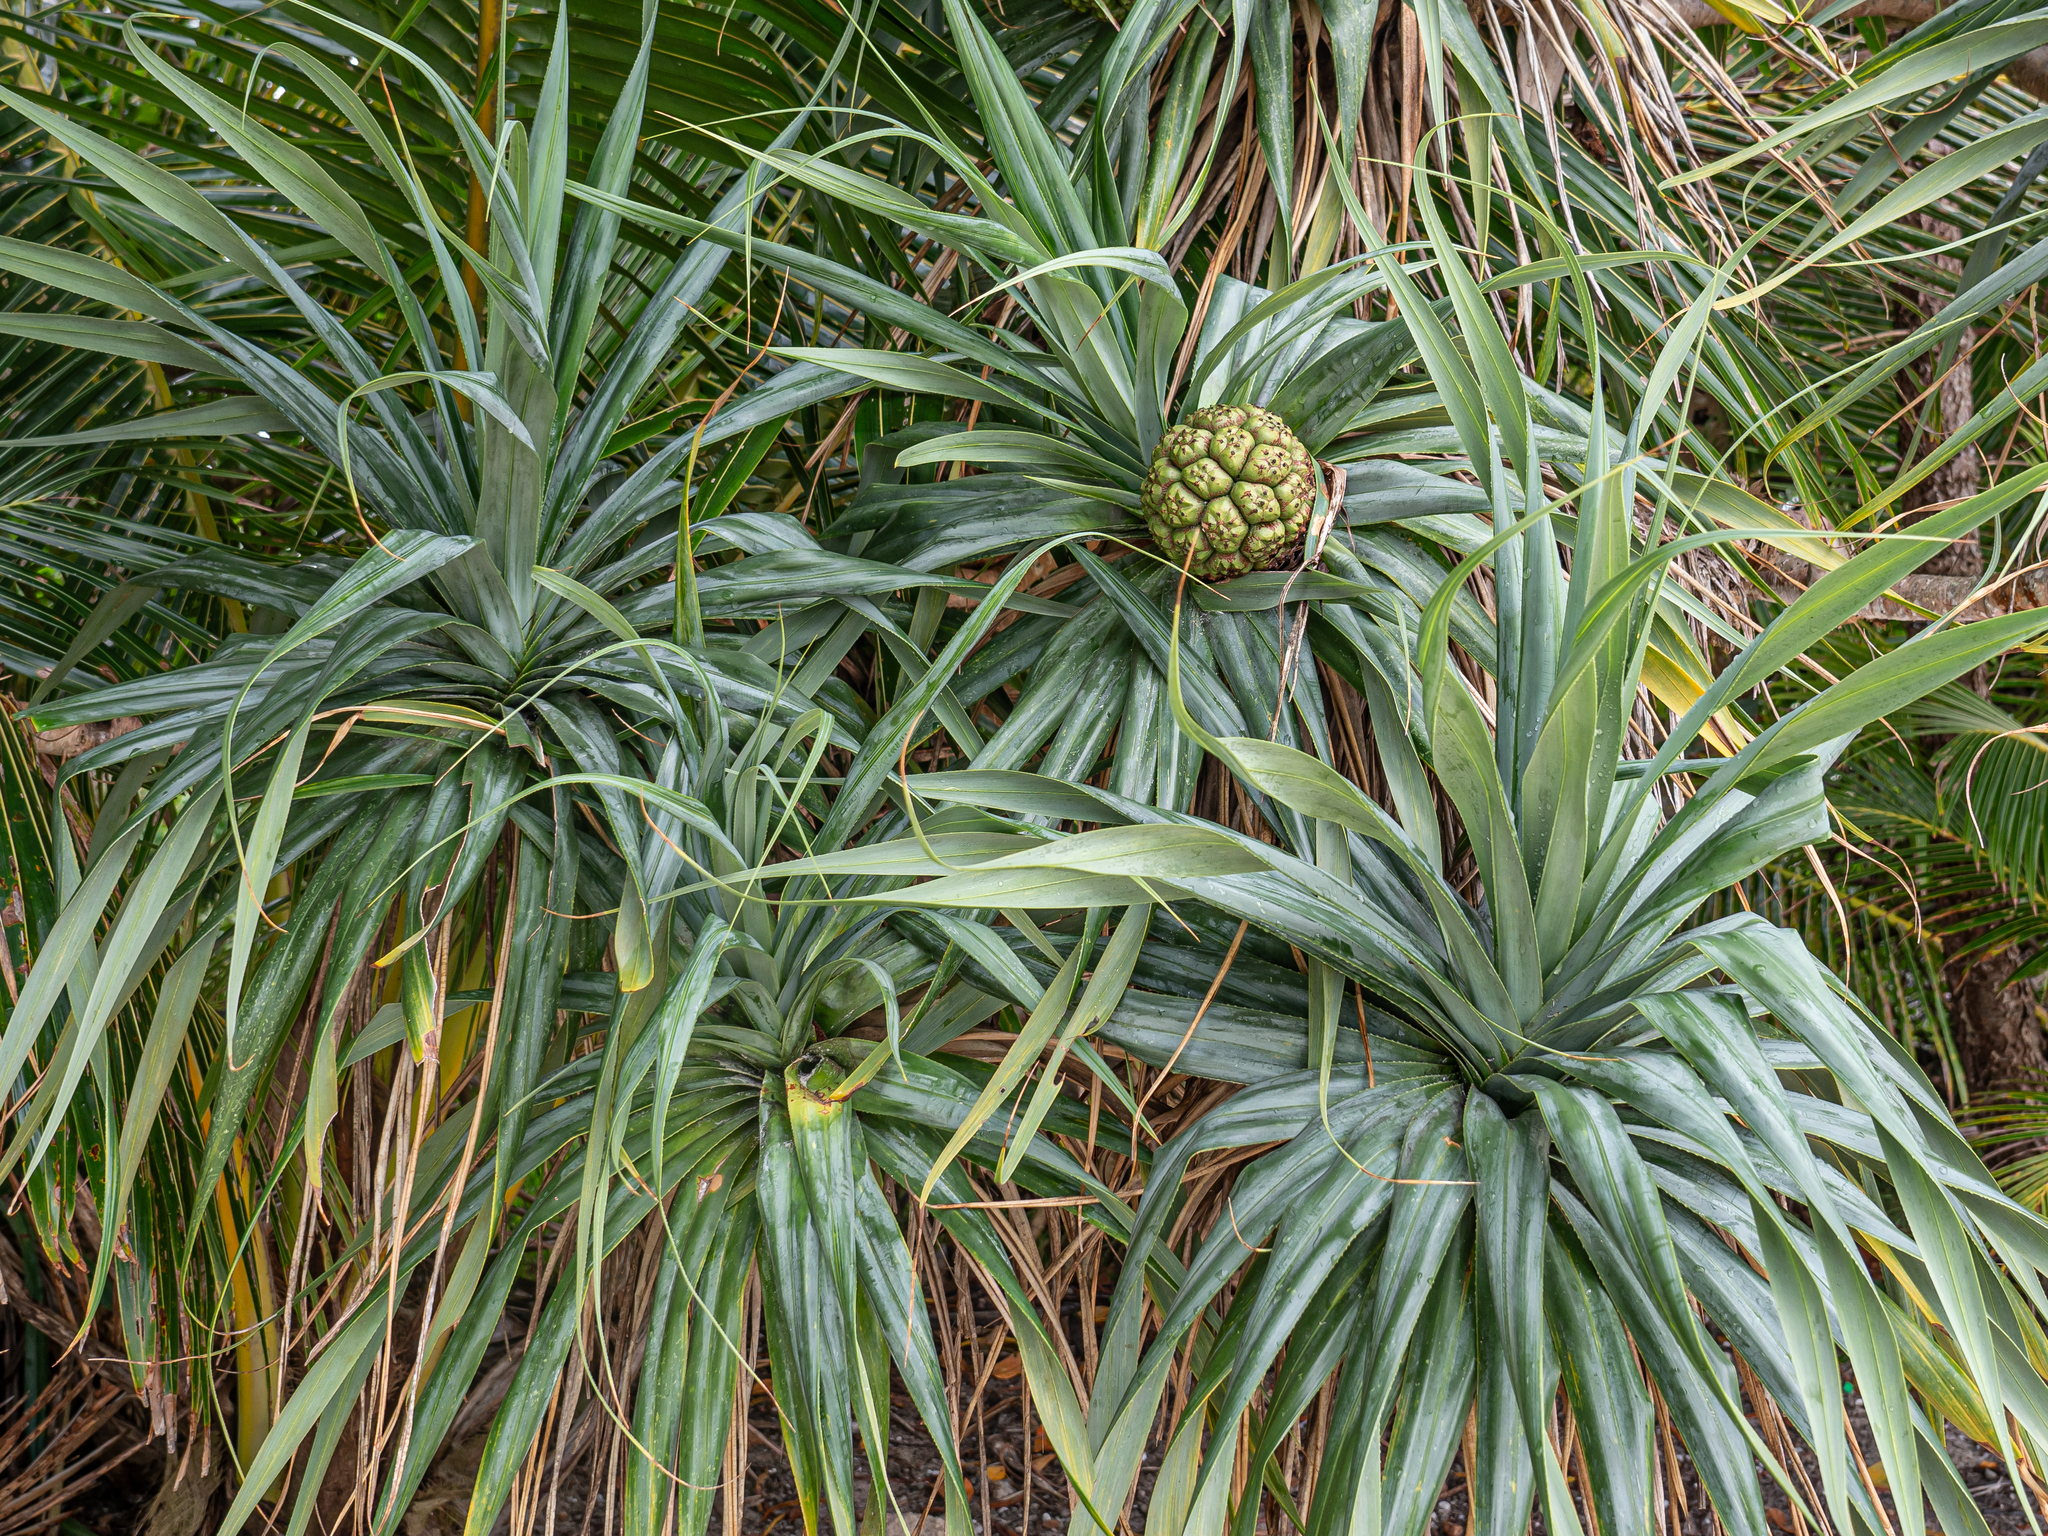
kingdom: Plantae
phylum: Tracheophyta
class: Liliopsida
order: Pandanales
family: Pandanaceae
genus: Pandanus
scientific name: Pandanus tectorius
